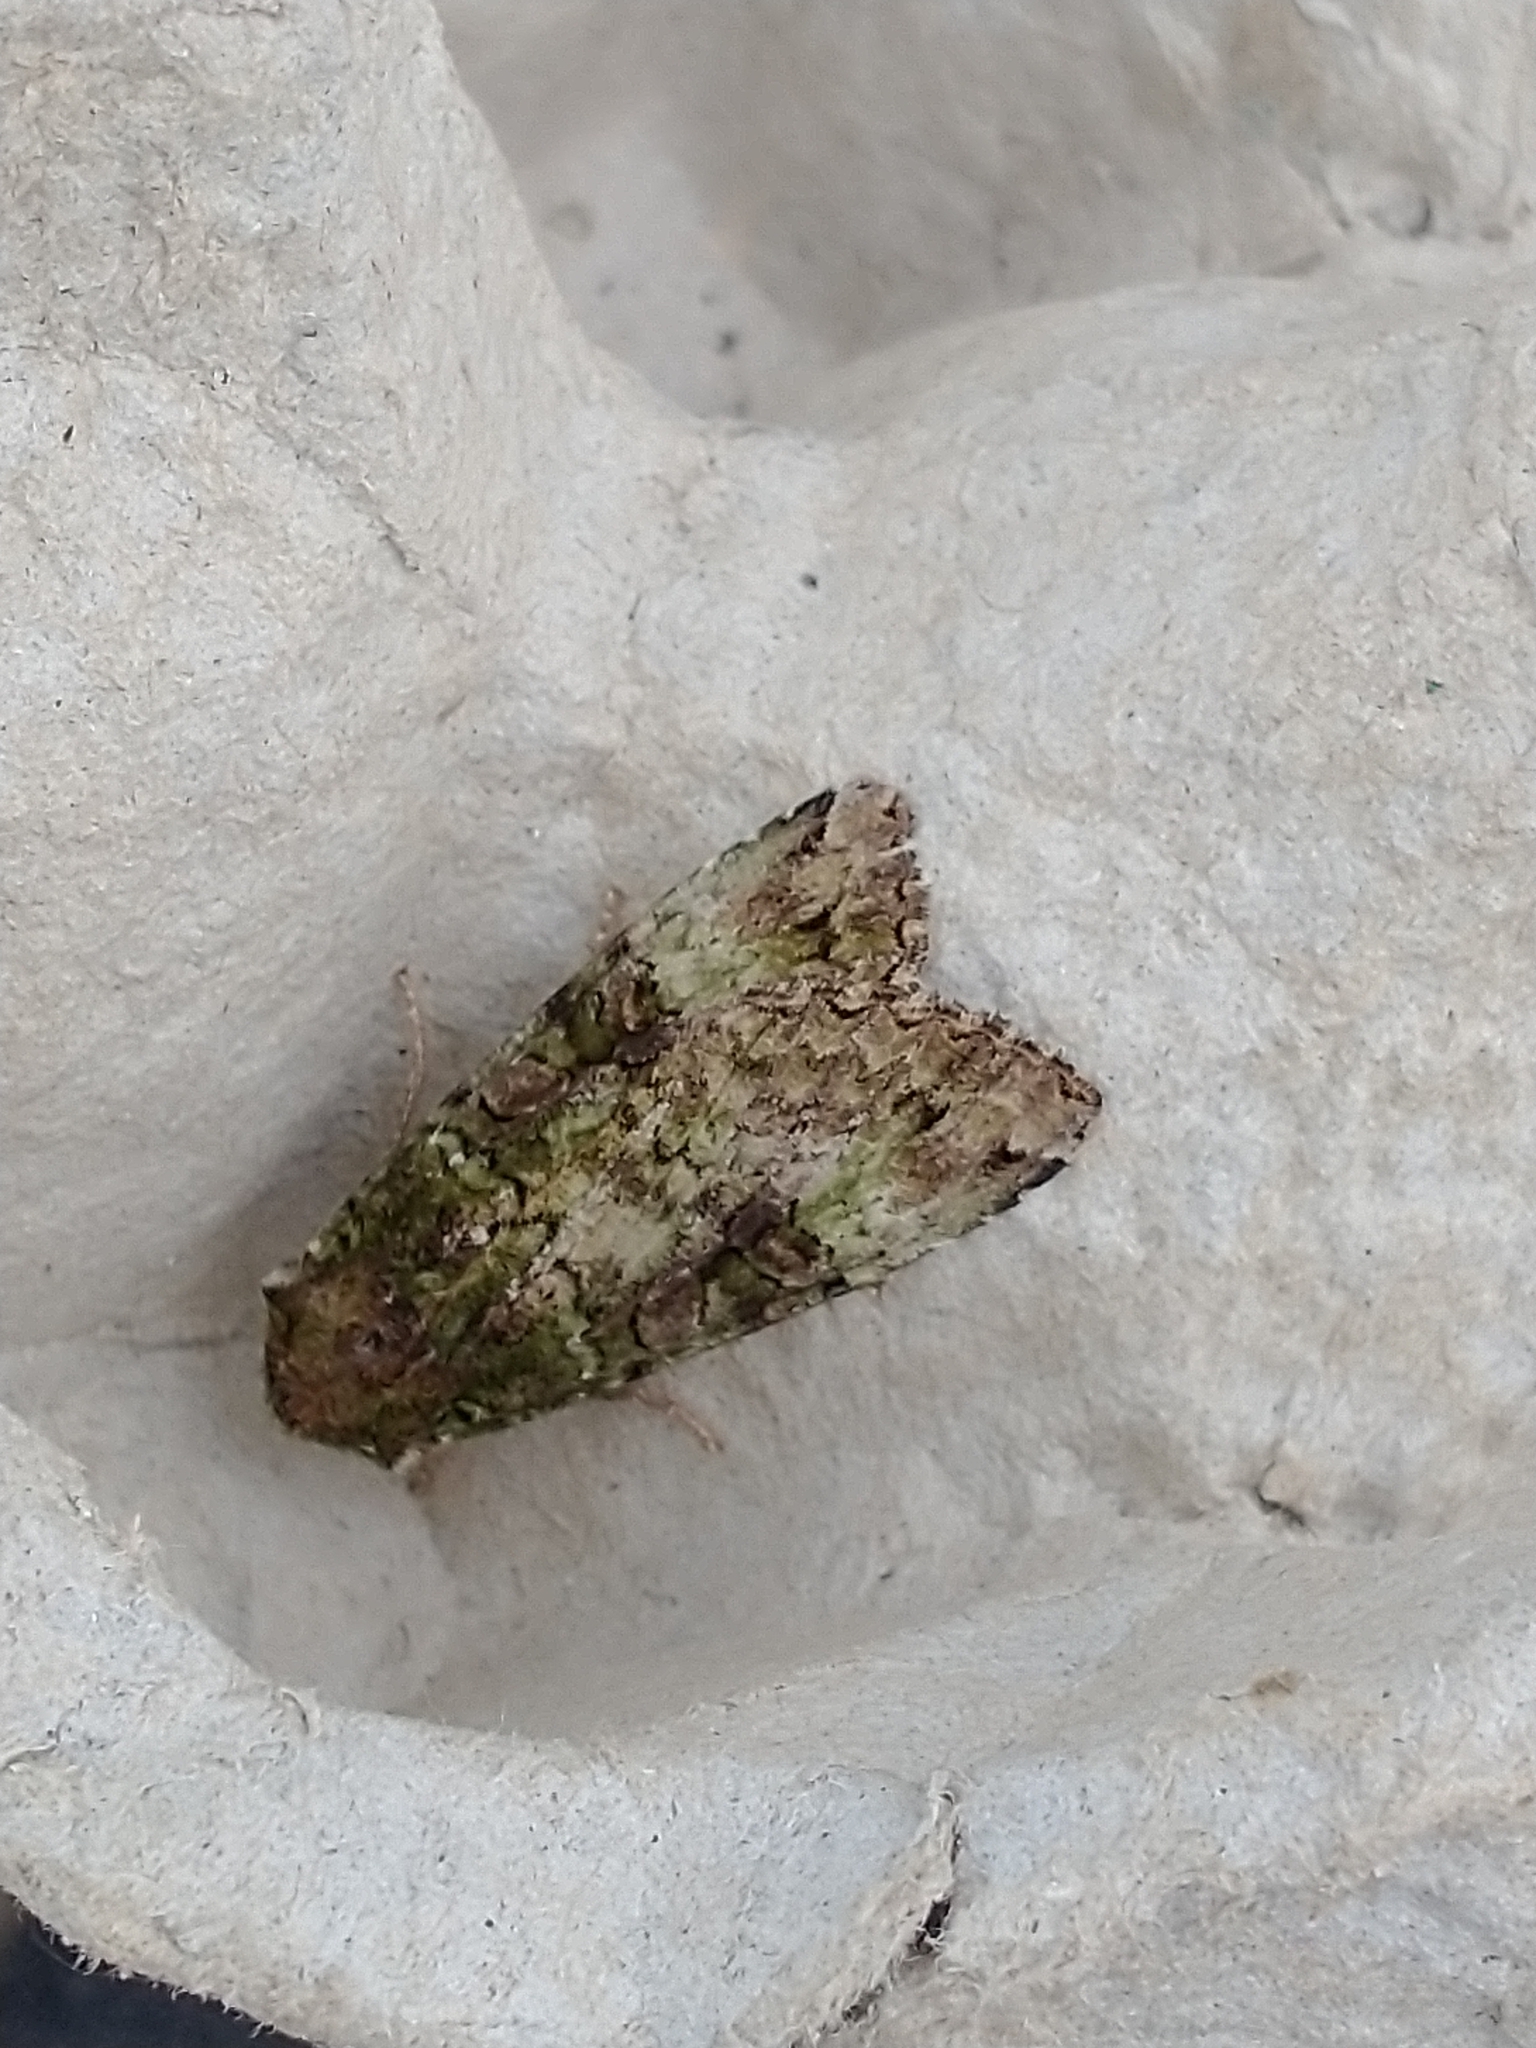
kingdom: Animalia
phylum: Arthropoda
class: Insecta
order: Lepidoptera
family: Noctuidae
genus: Anaplectoides
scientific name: Anaplectoides prasina
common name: Green arches
